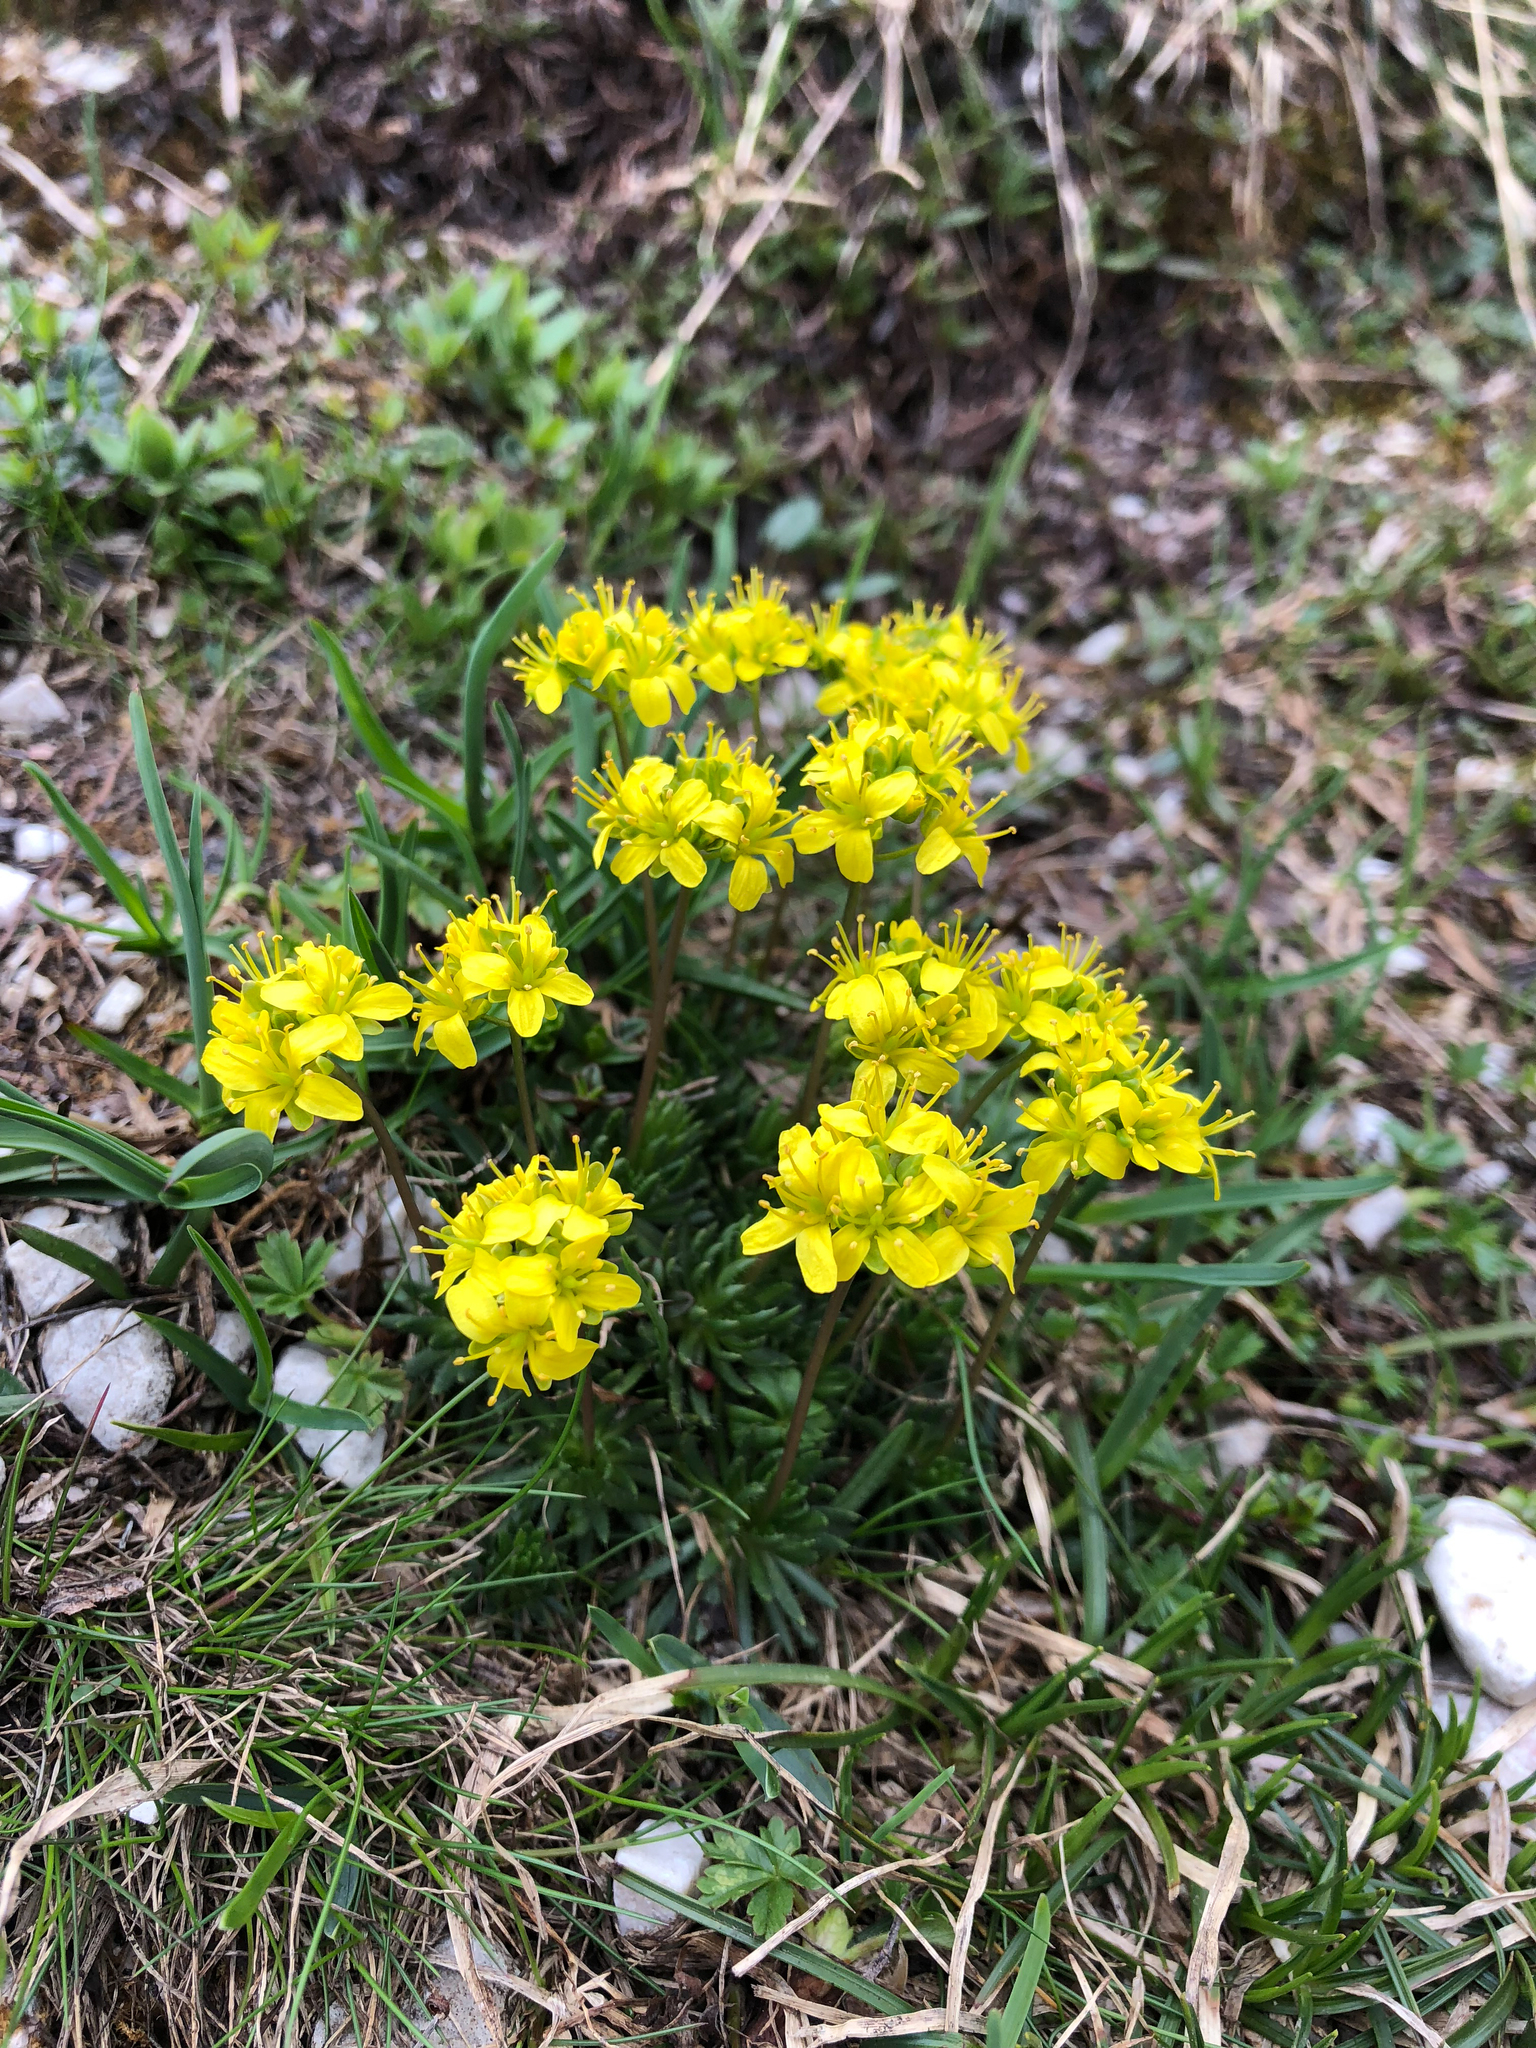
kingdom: Plantae
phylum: Tracheophyta
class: Magnoliopsida
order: Brassicales
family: Brassicaceae
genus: Draba
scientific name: Draba aizoides
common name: Yellow whitlowgrass
